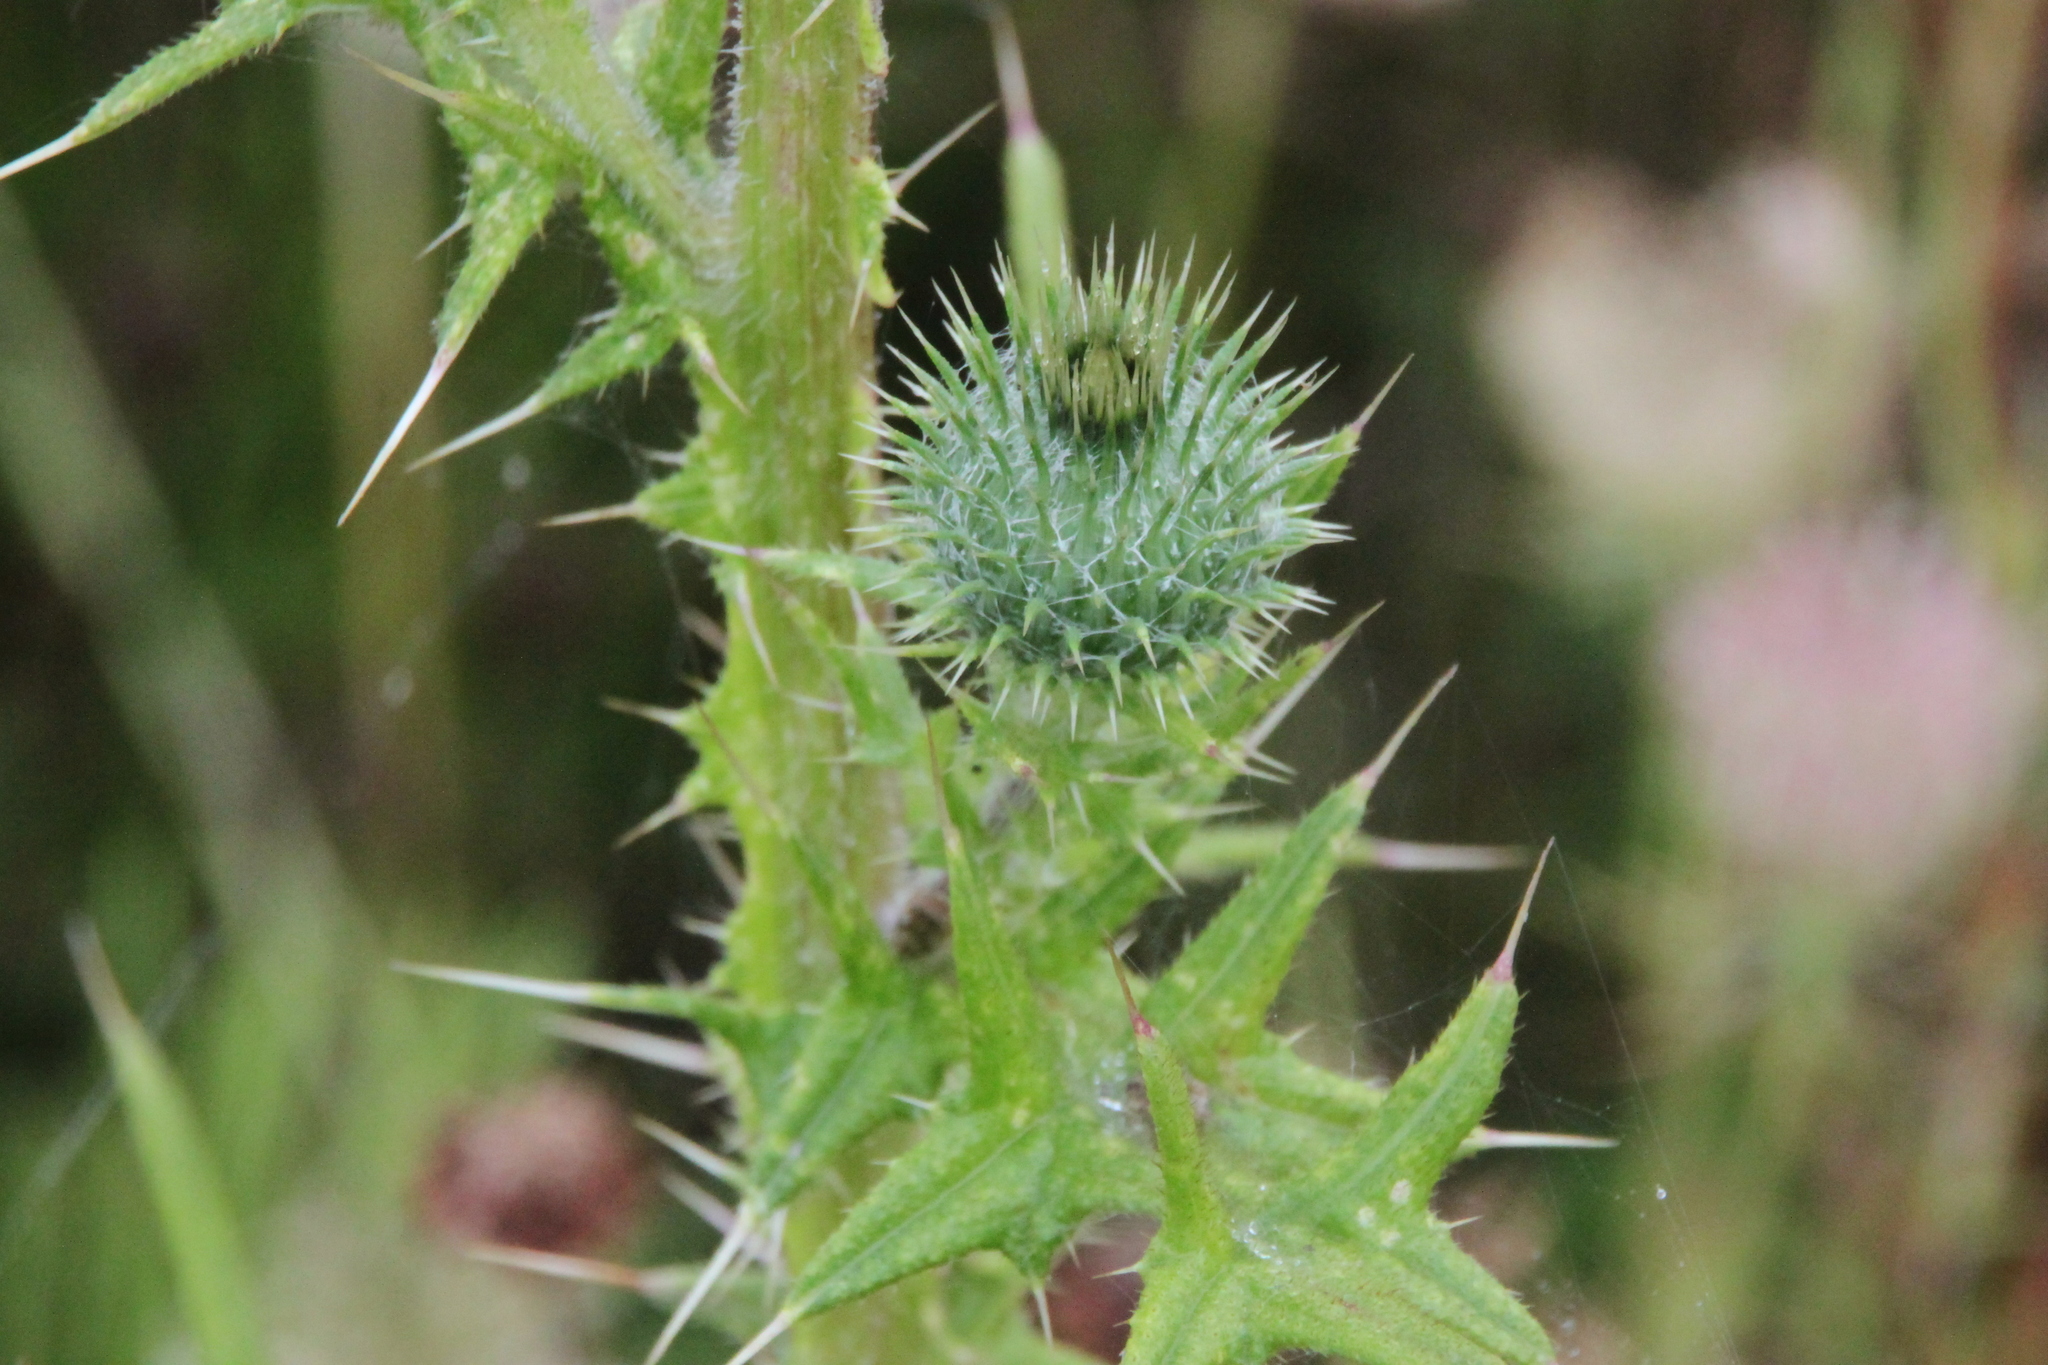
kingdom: Plantae
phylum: Tracheophyta
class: Magnoliopsida
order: Asterales
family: Asteraceae
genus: Cirsium
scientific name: Cirsium vulgare
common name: Bull thistle
